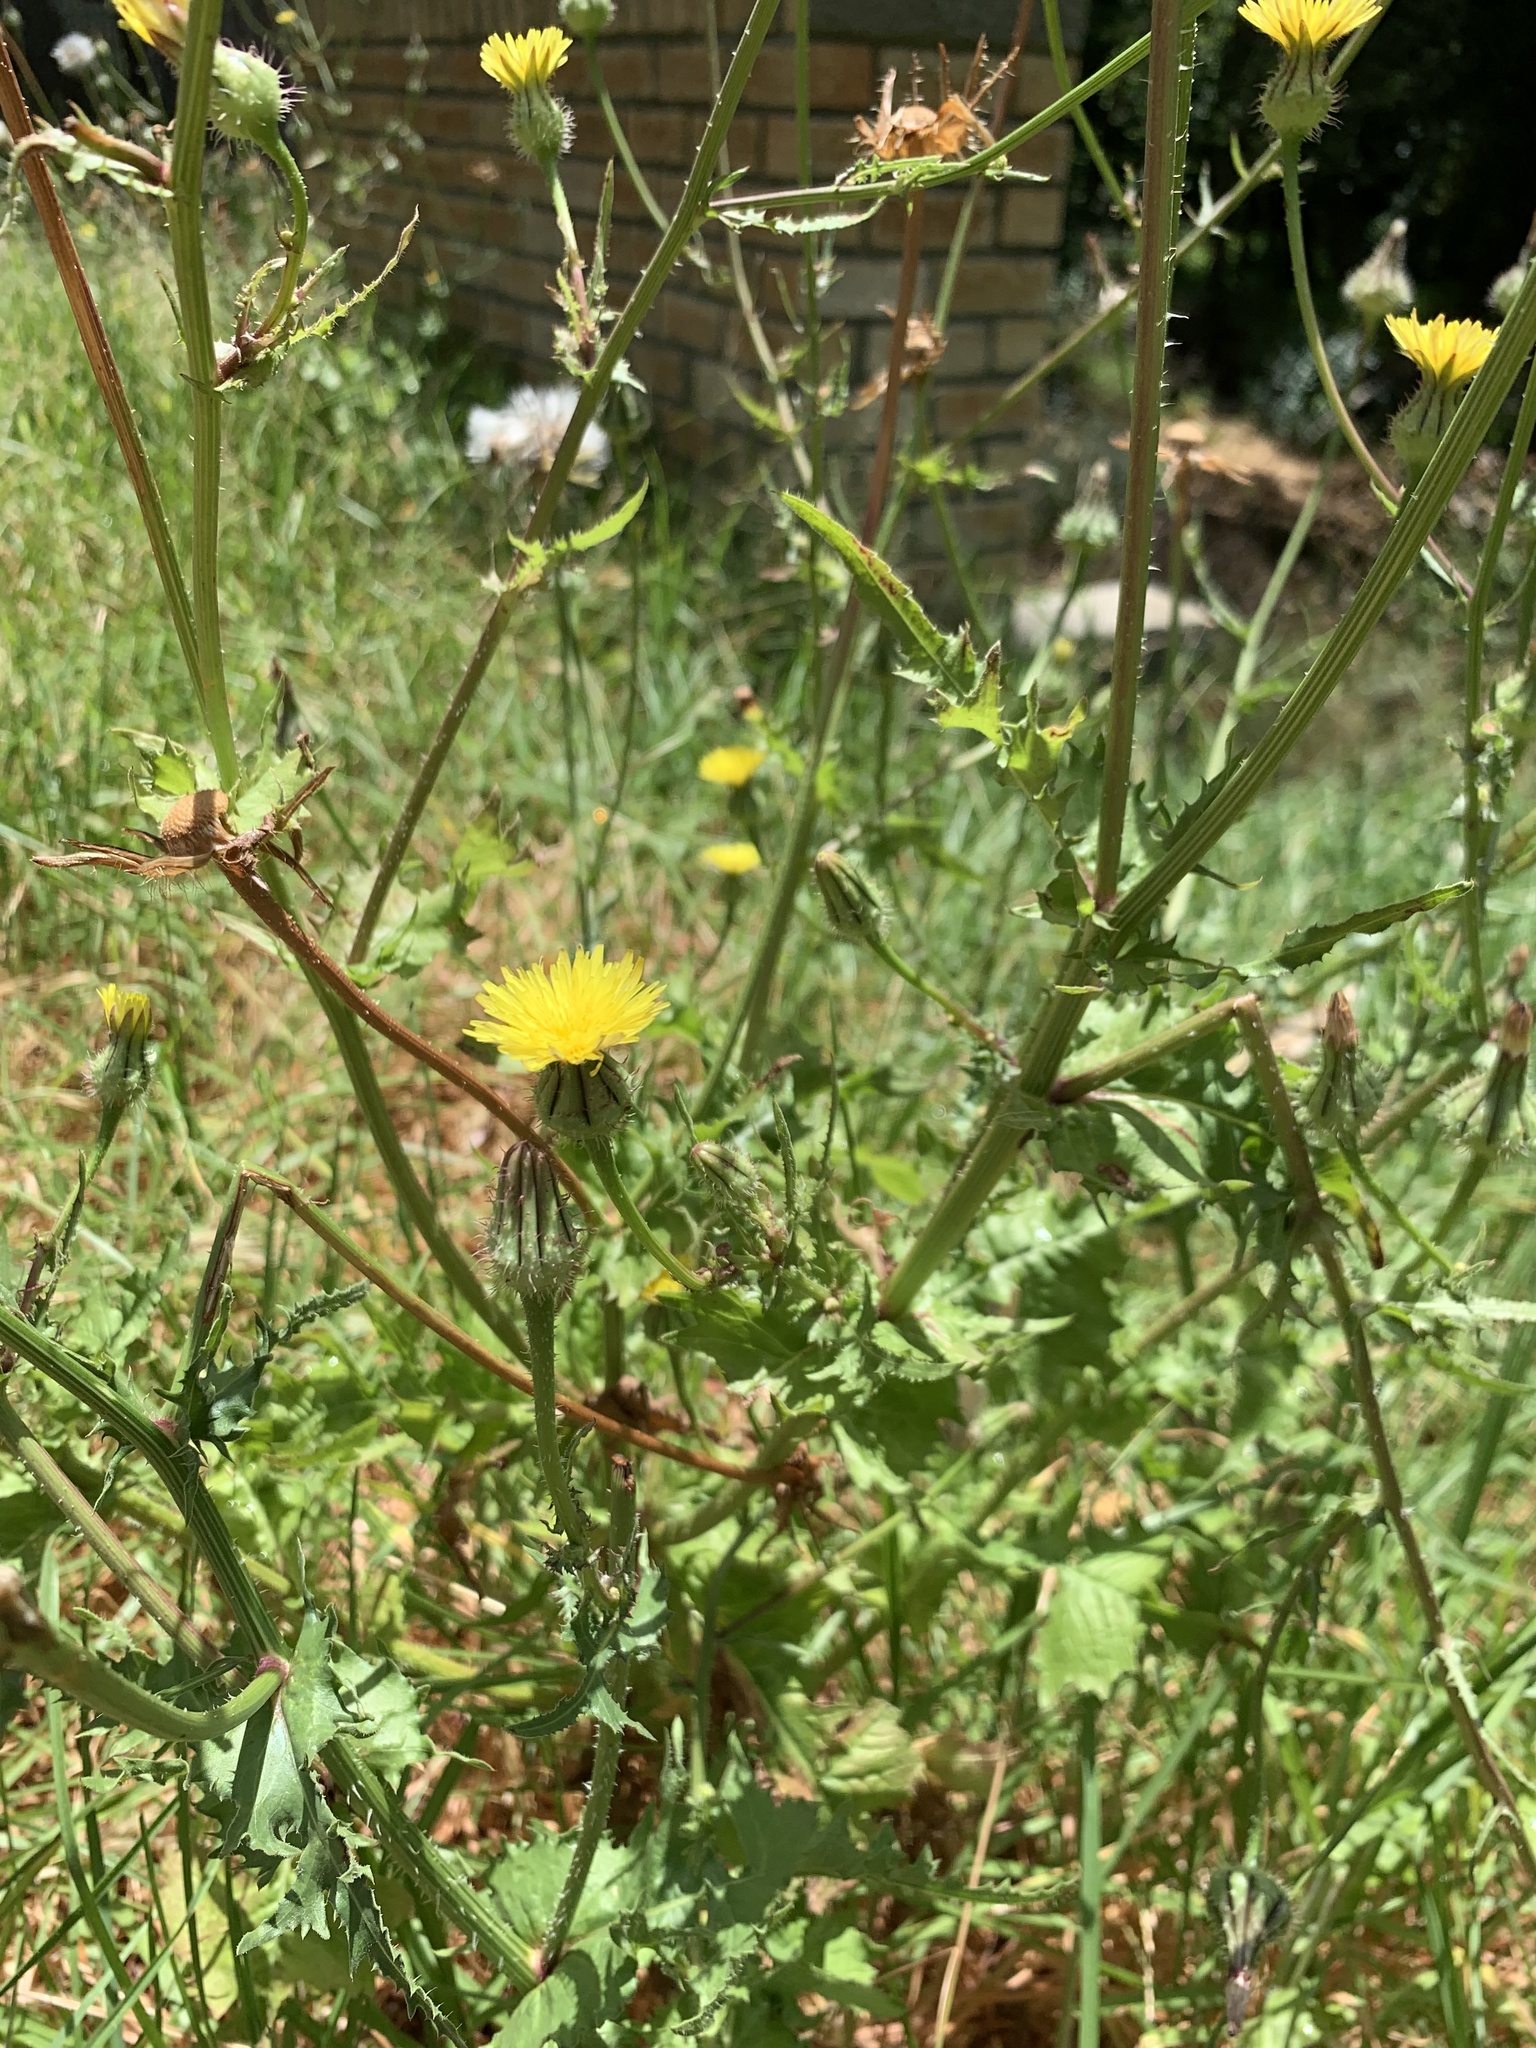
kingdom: Plantae
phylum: Tracheophyta
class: Magnoliopsida
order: Asterales
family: Asteraceae
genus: Urospermum
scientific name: Urospermum picroides
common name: False hawkbit
